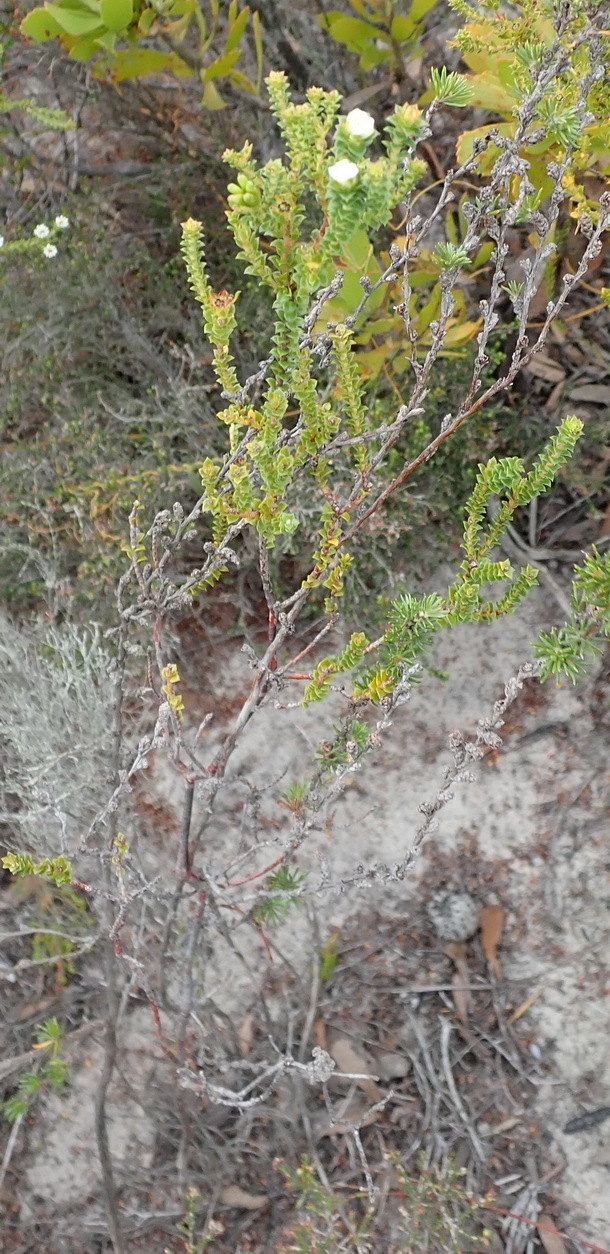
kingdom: Plantae
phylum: Tracheophyta
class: Magnoliopsida
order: Sapindales
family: Rutaceae
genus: Diosma
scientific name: Diosma echinulata
